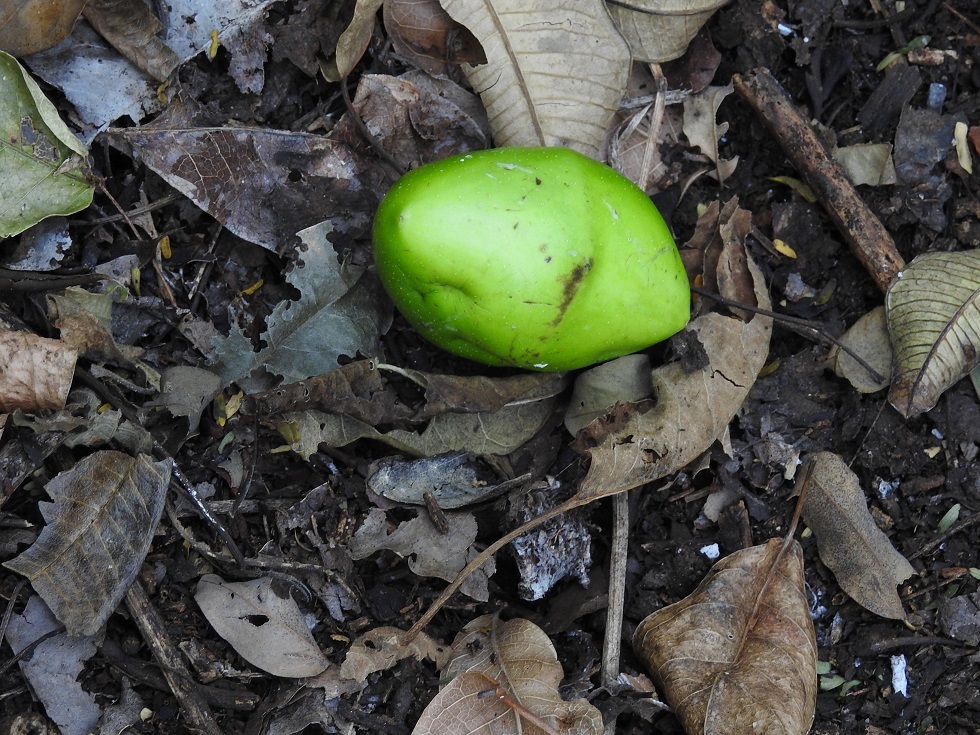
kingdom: Plantae
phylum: Tracheophyta
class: Magnoliopsida
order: Gentianales
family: Apocynaceae
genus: Cascabela
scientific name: Cascabela ovata
